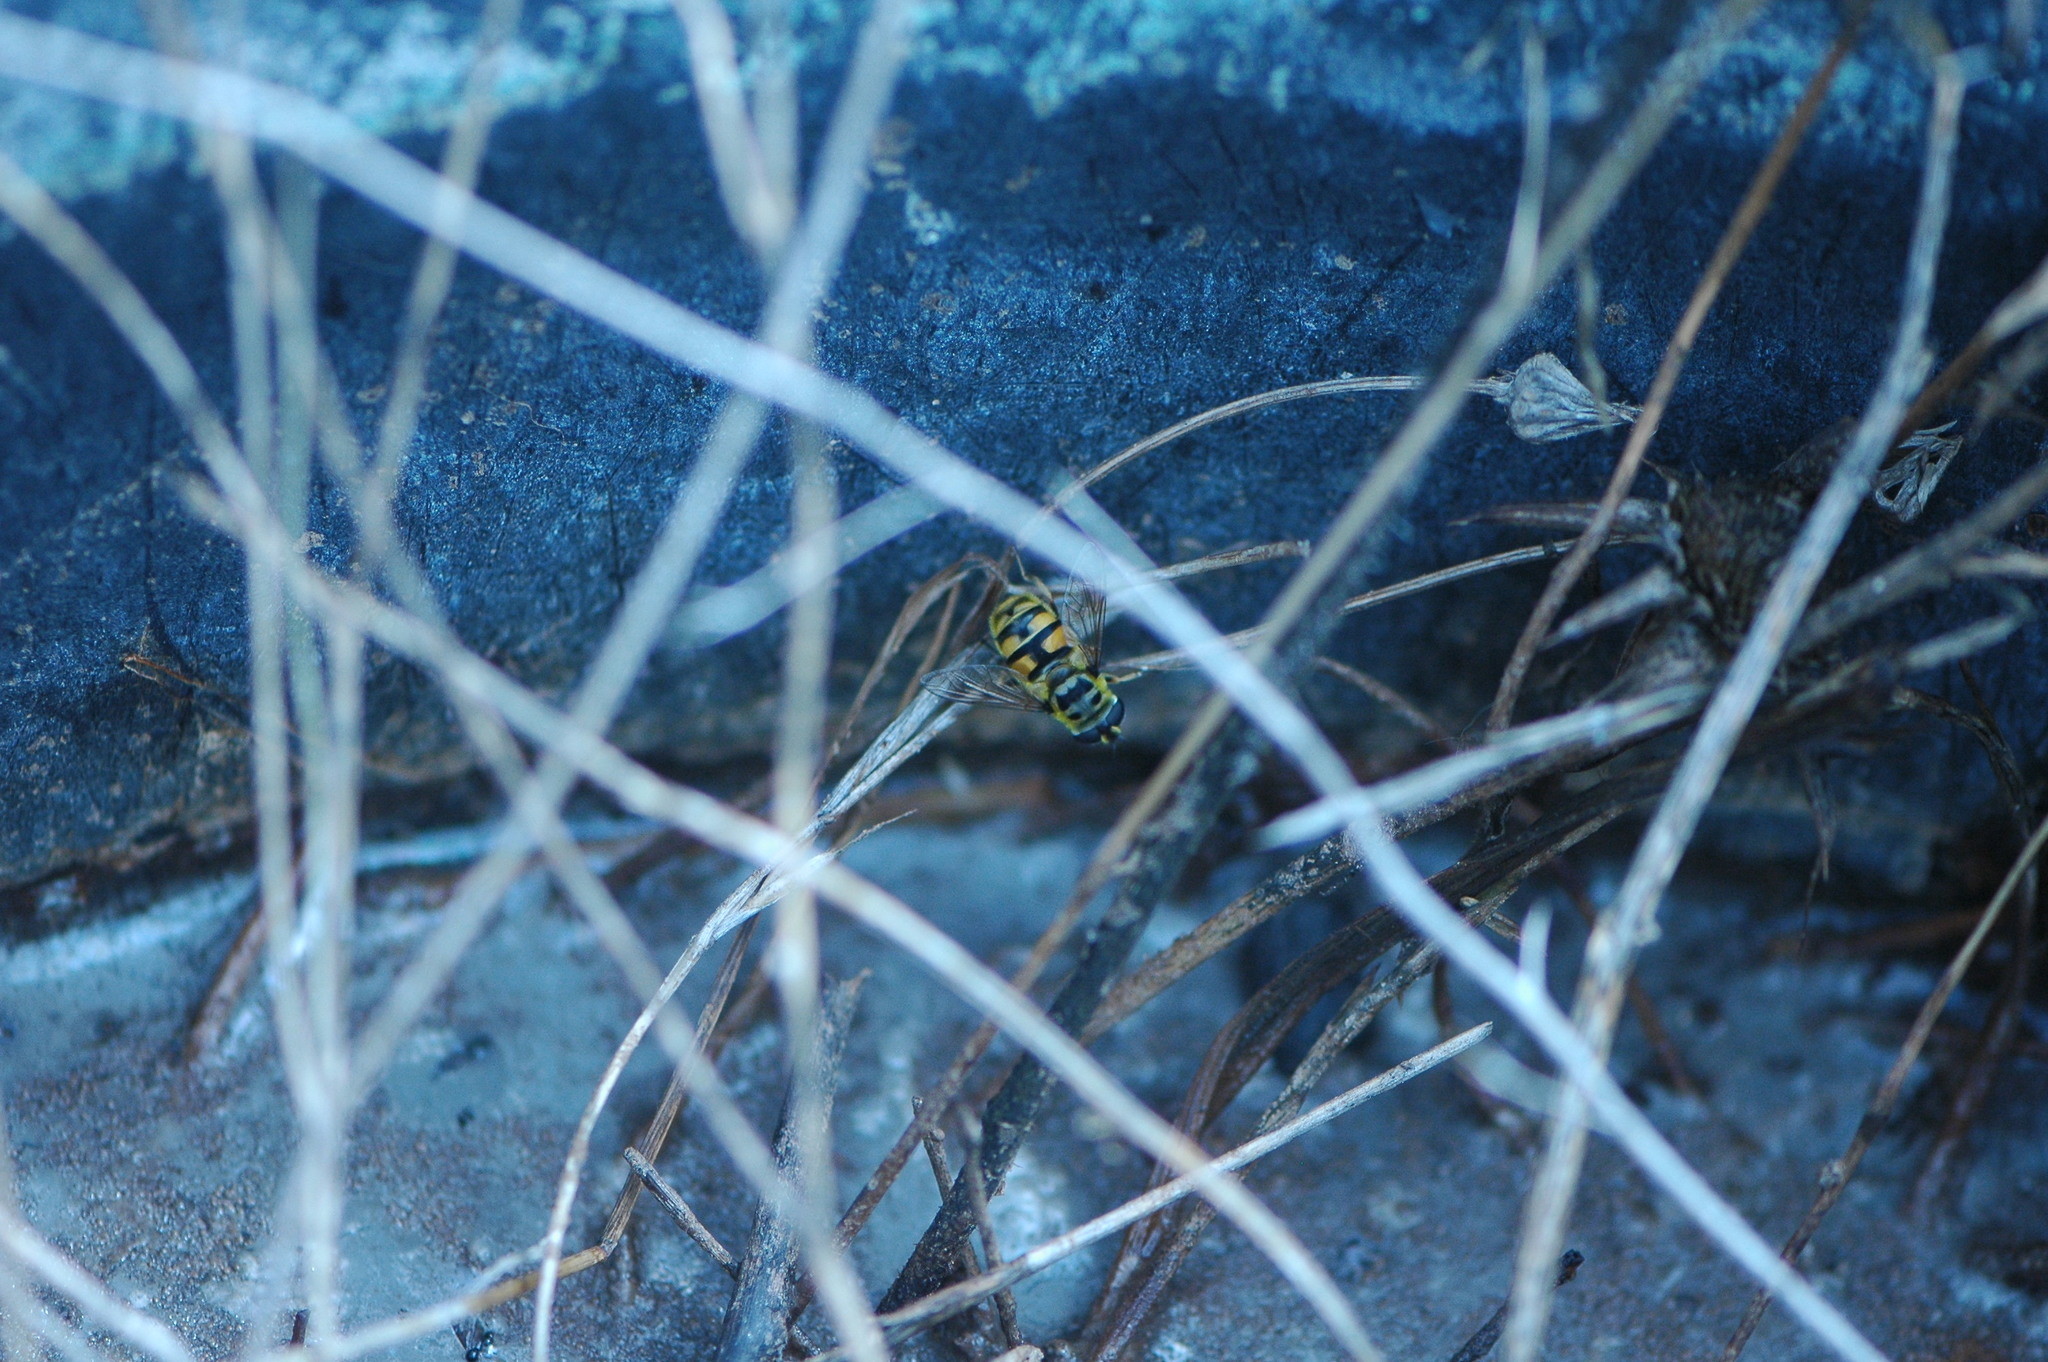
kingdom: Animalia
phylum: Arthropoda
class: Insecta
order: Diptera
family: Syrphidae
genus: Myathropa
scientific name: Myathropa florea
